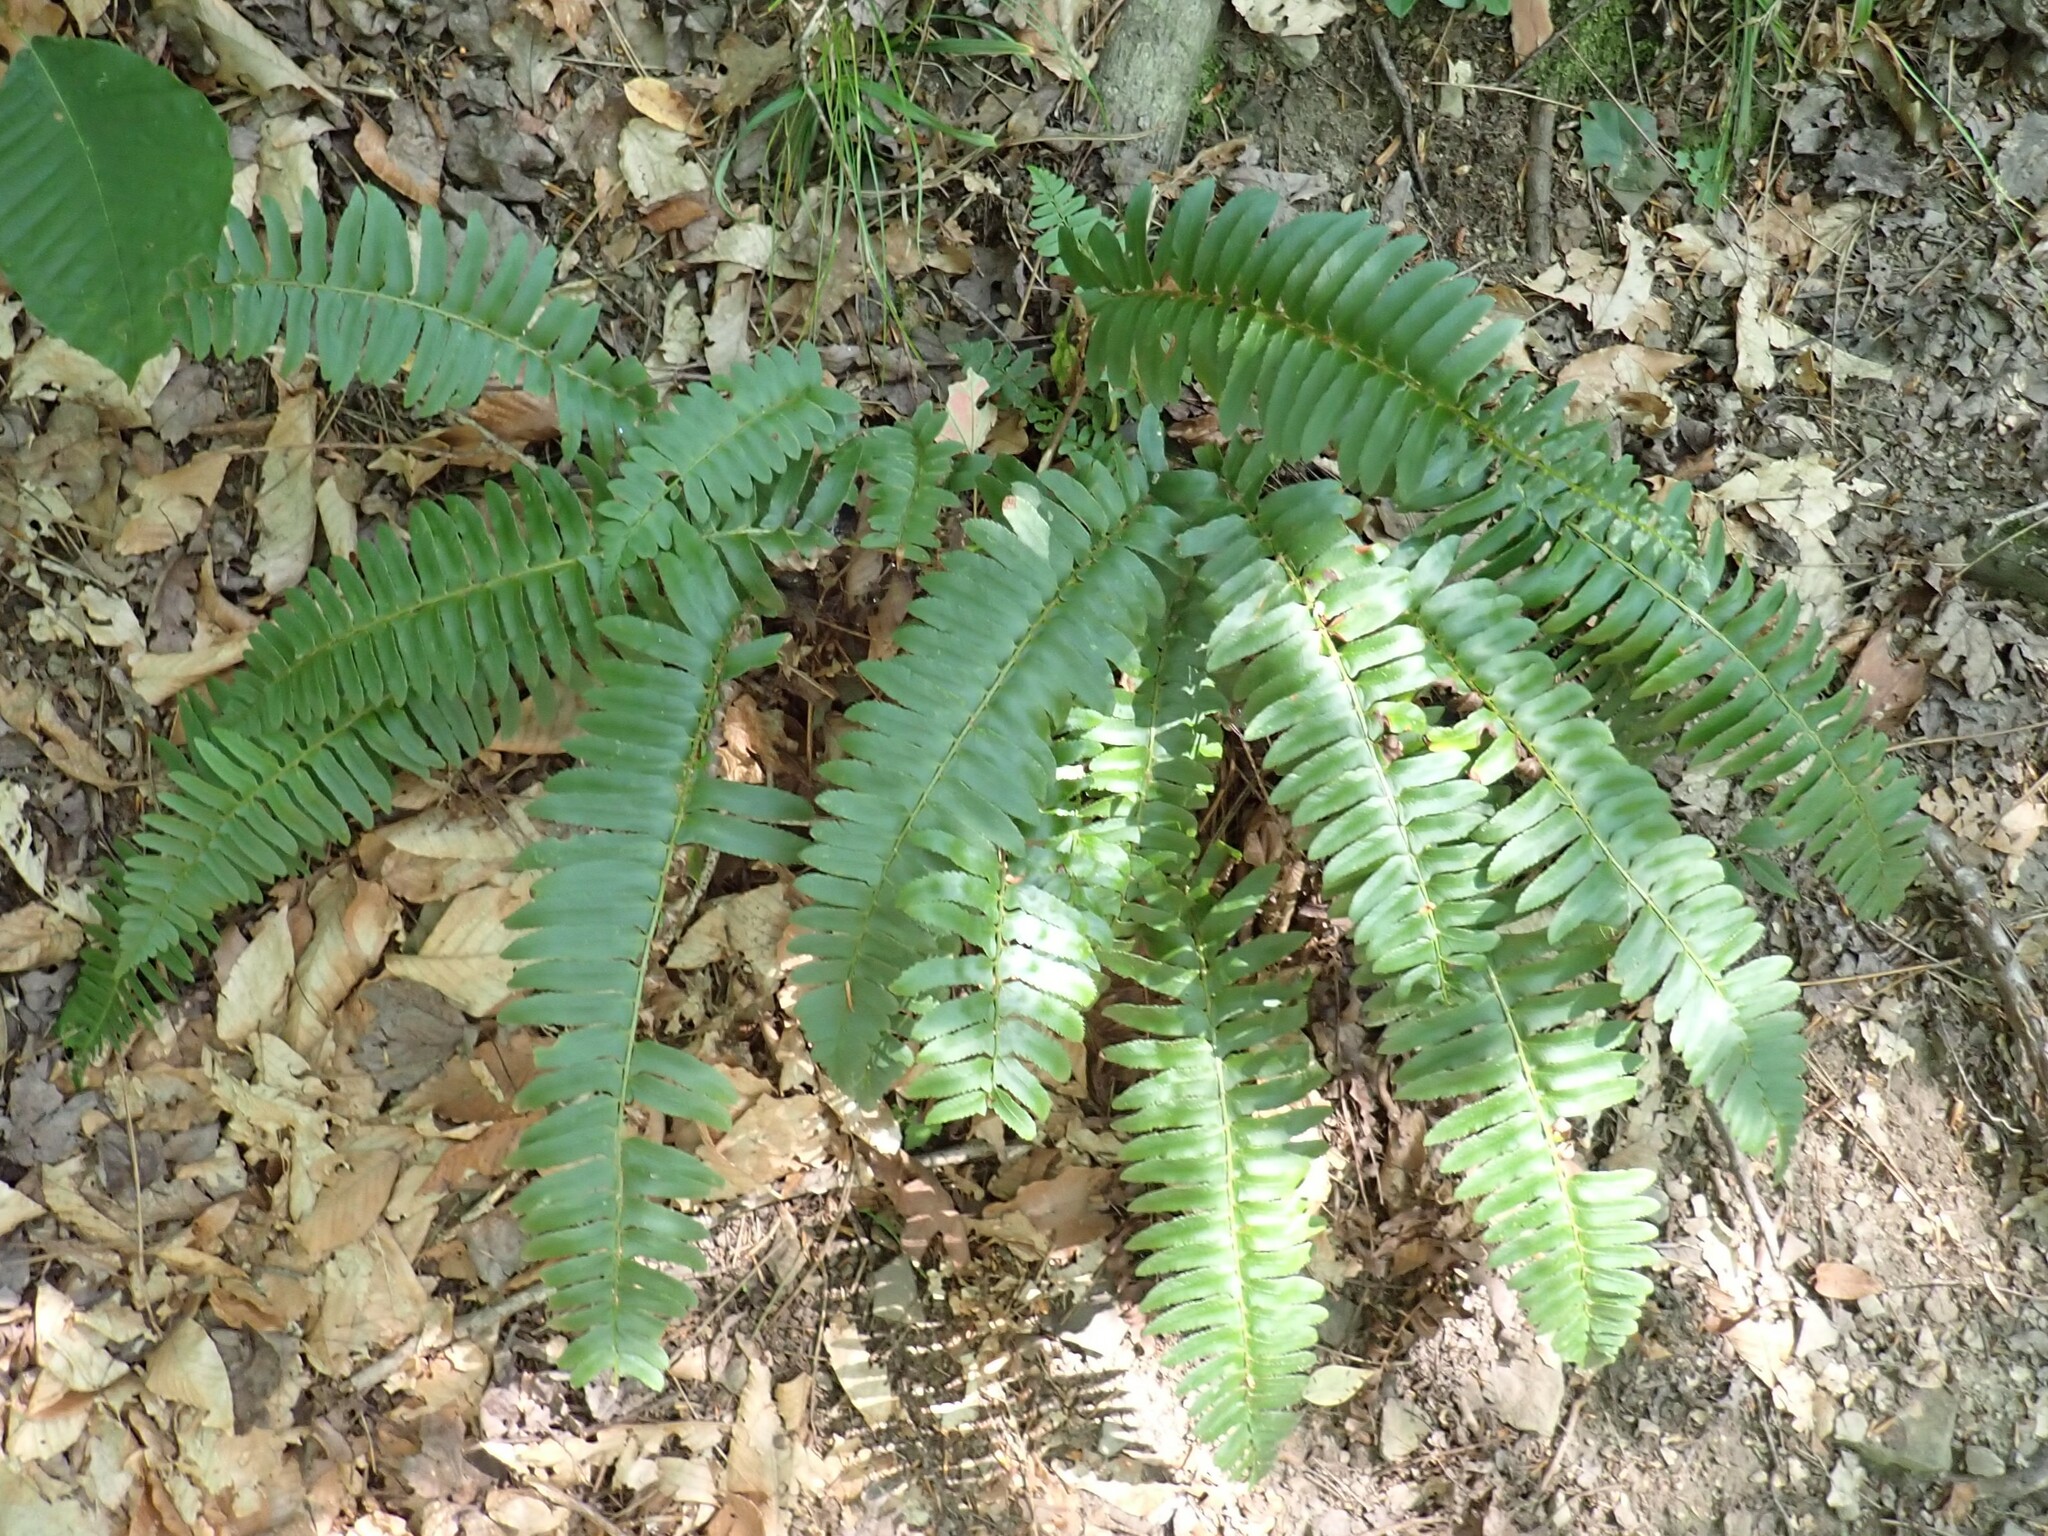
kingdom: Plantae
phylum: Tracheophyta
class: Polypodiopsida
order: Polypodiales
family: Dryopteridaceae
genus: Polystichum
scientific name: Polystichum acrostichoides
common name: Christmas fern
